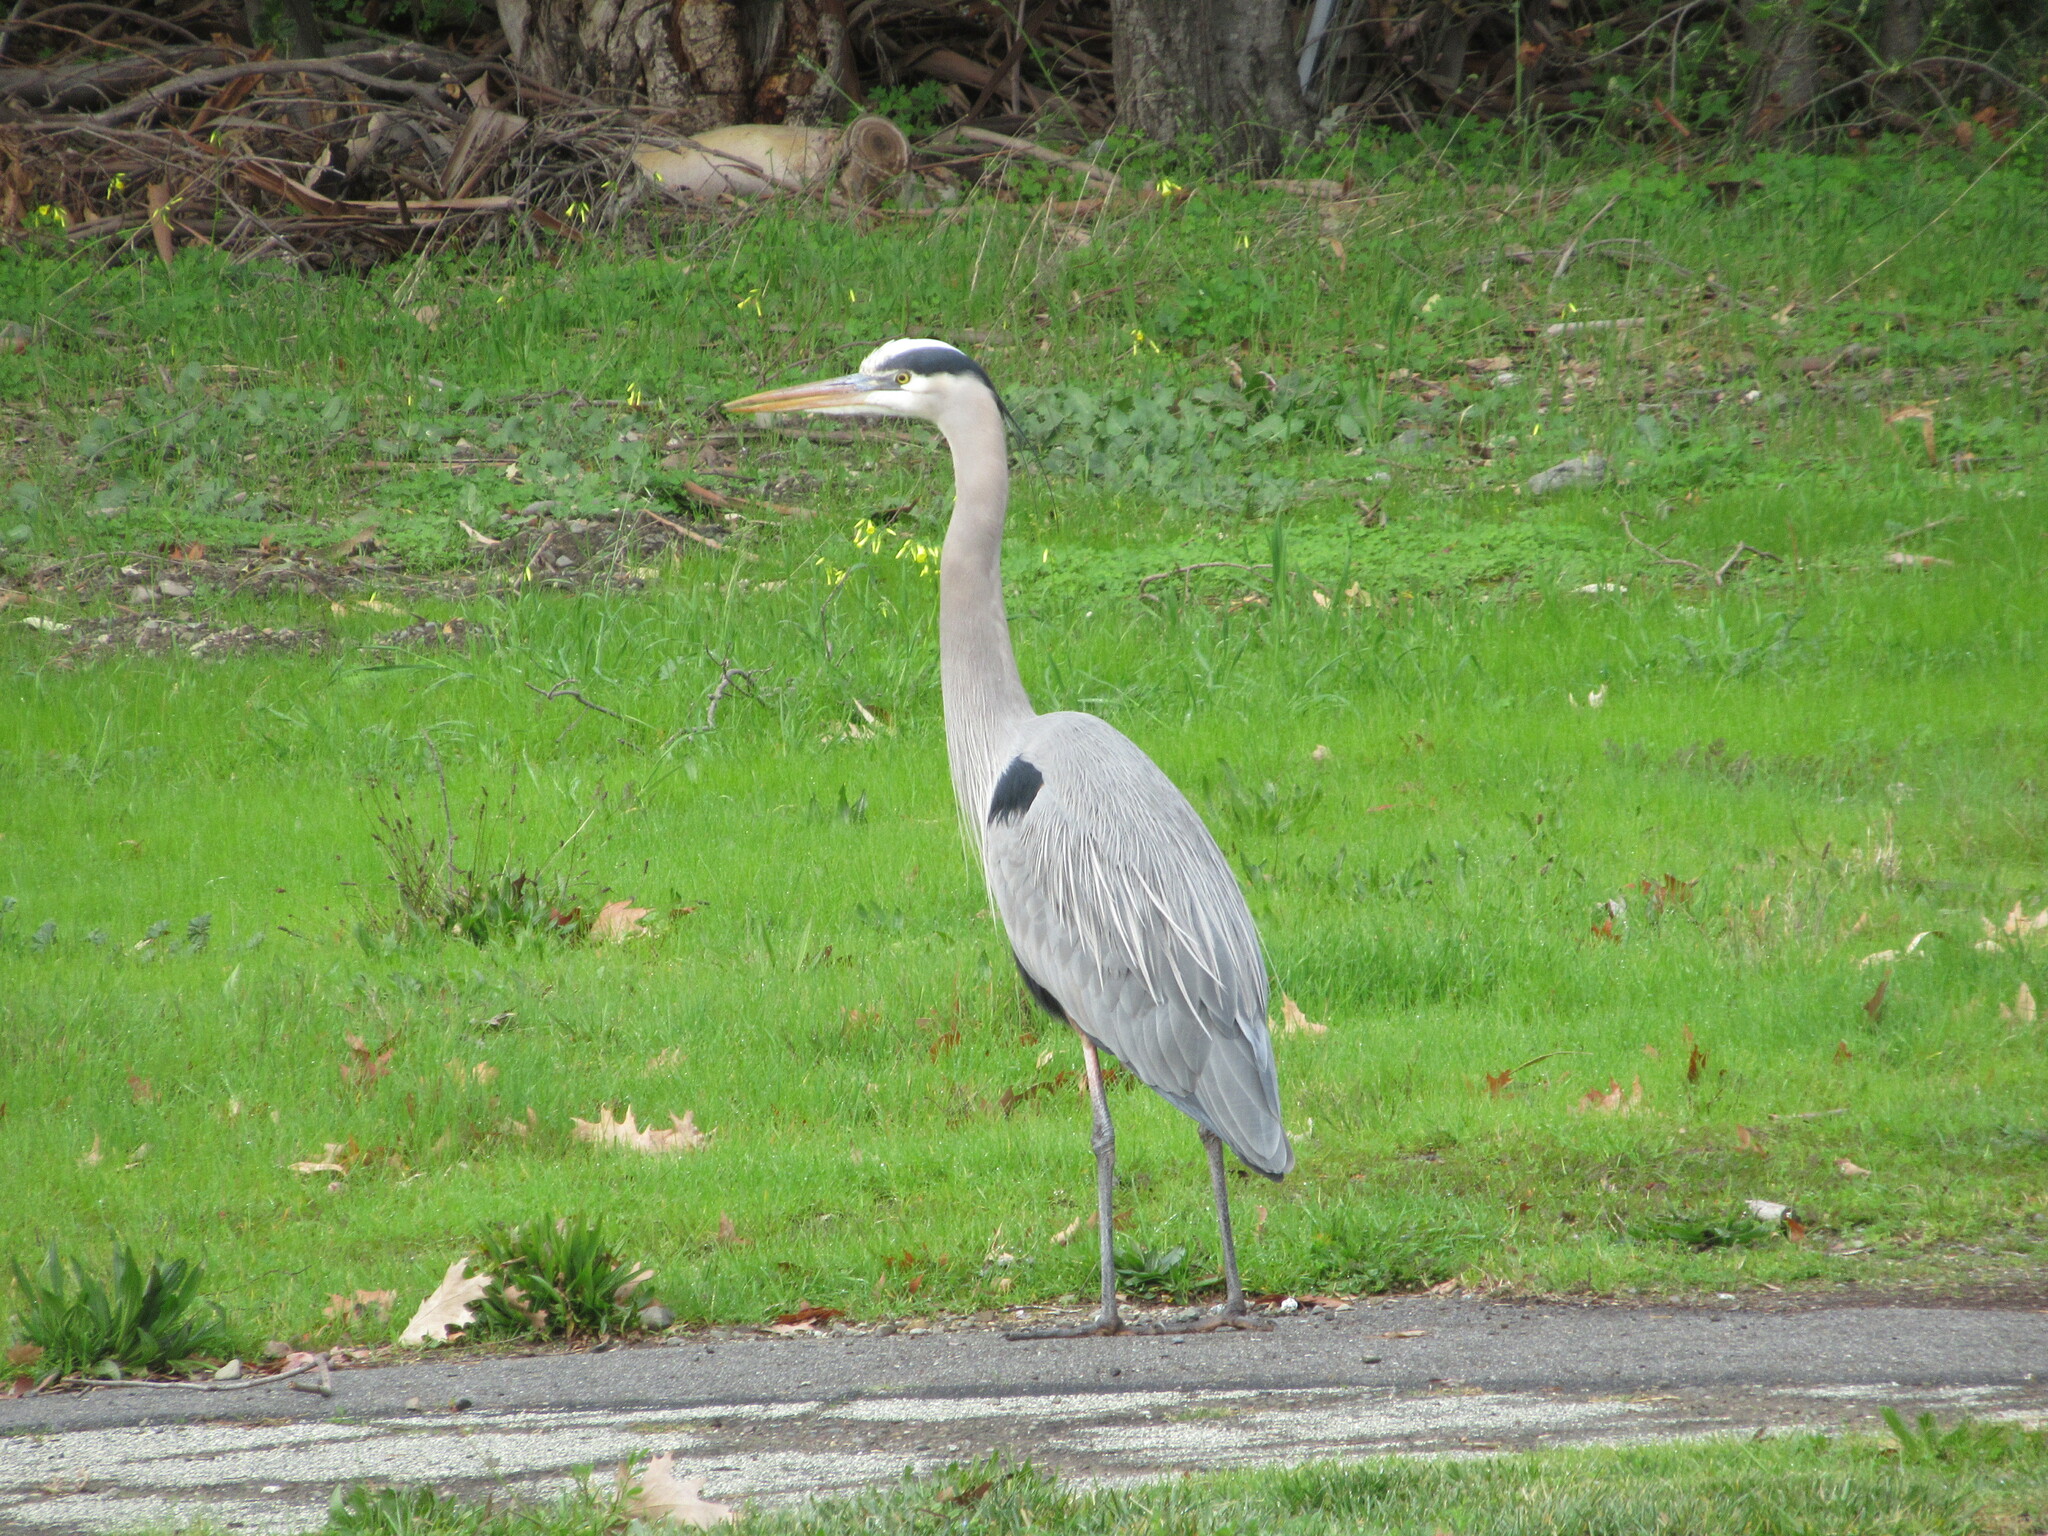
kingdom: Animalia
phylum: Chordata
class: Aves
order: Pelecaniformes
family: Ardeidae
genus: Ardea
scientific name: Ardea herodias
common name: Great blue heron
